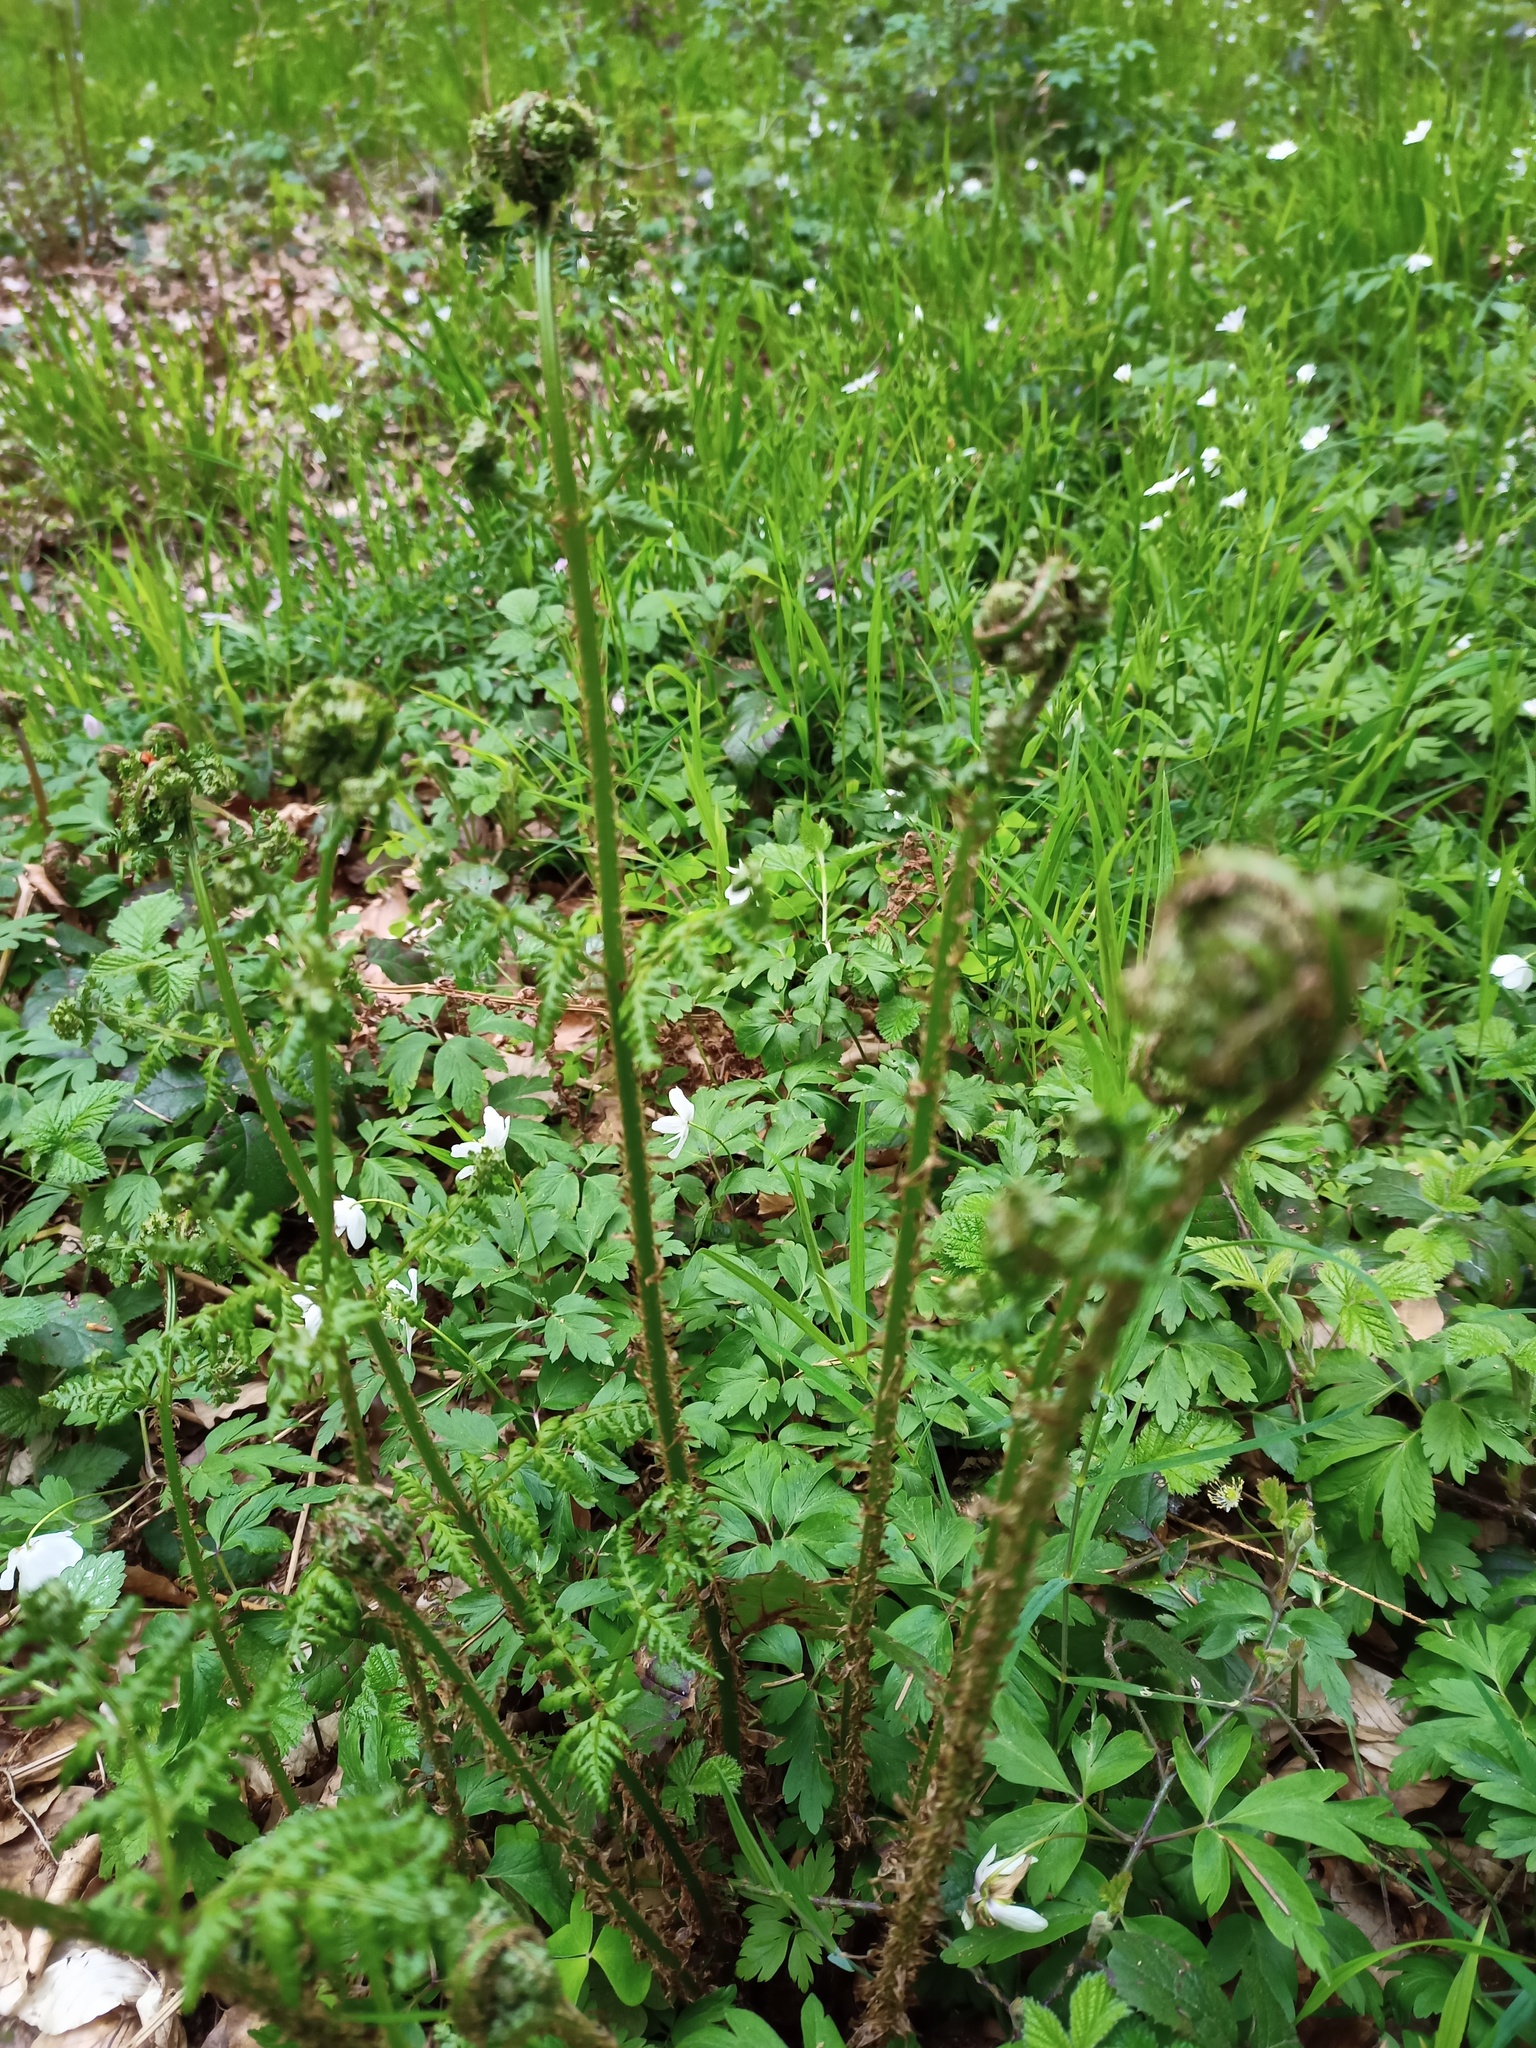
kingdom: Plantae
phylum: Tracheophyta
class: Polypodiopsida
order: Polypodiales
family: Dryopteridaceae
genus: Dryopteris
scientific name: Dryopteris dilatata
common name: Broad buckler-fern
